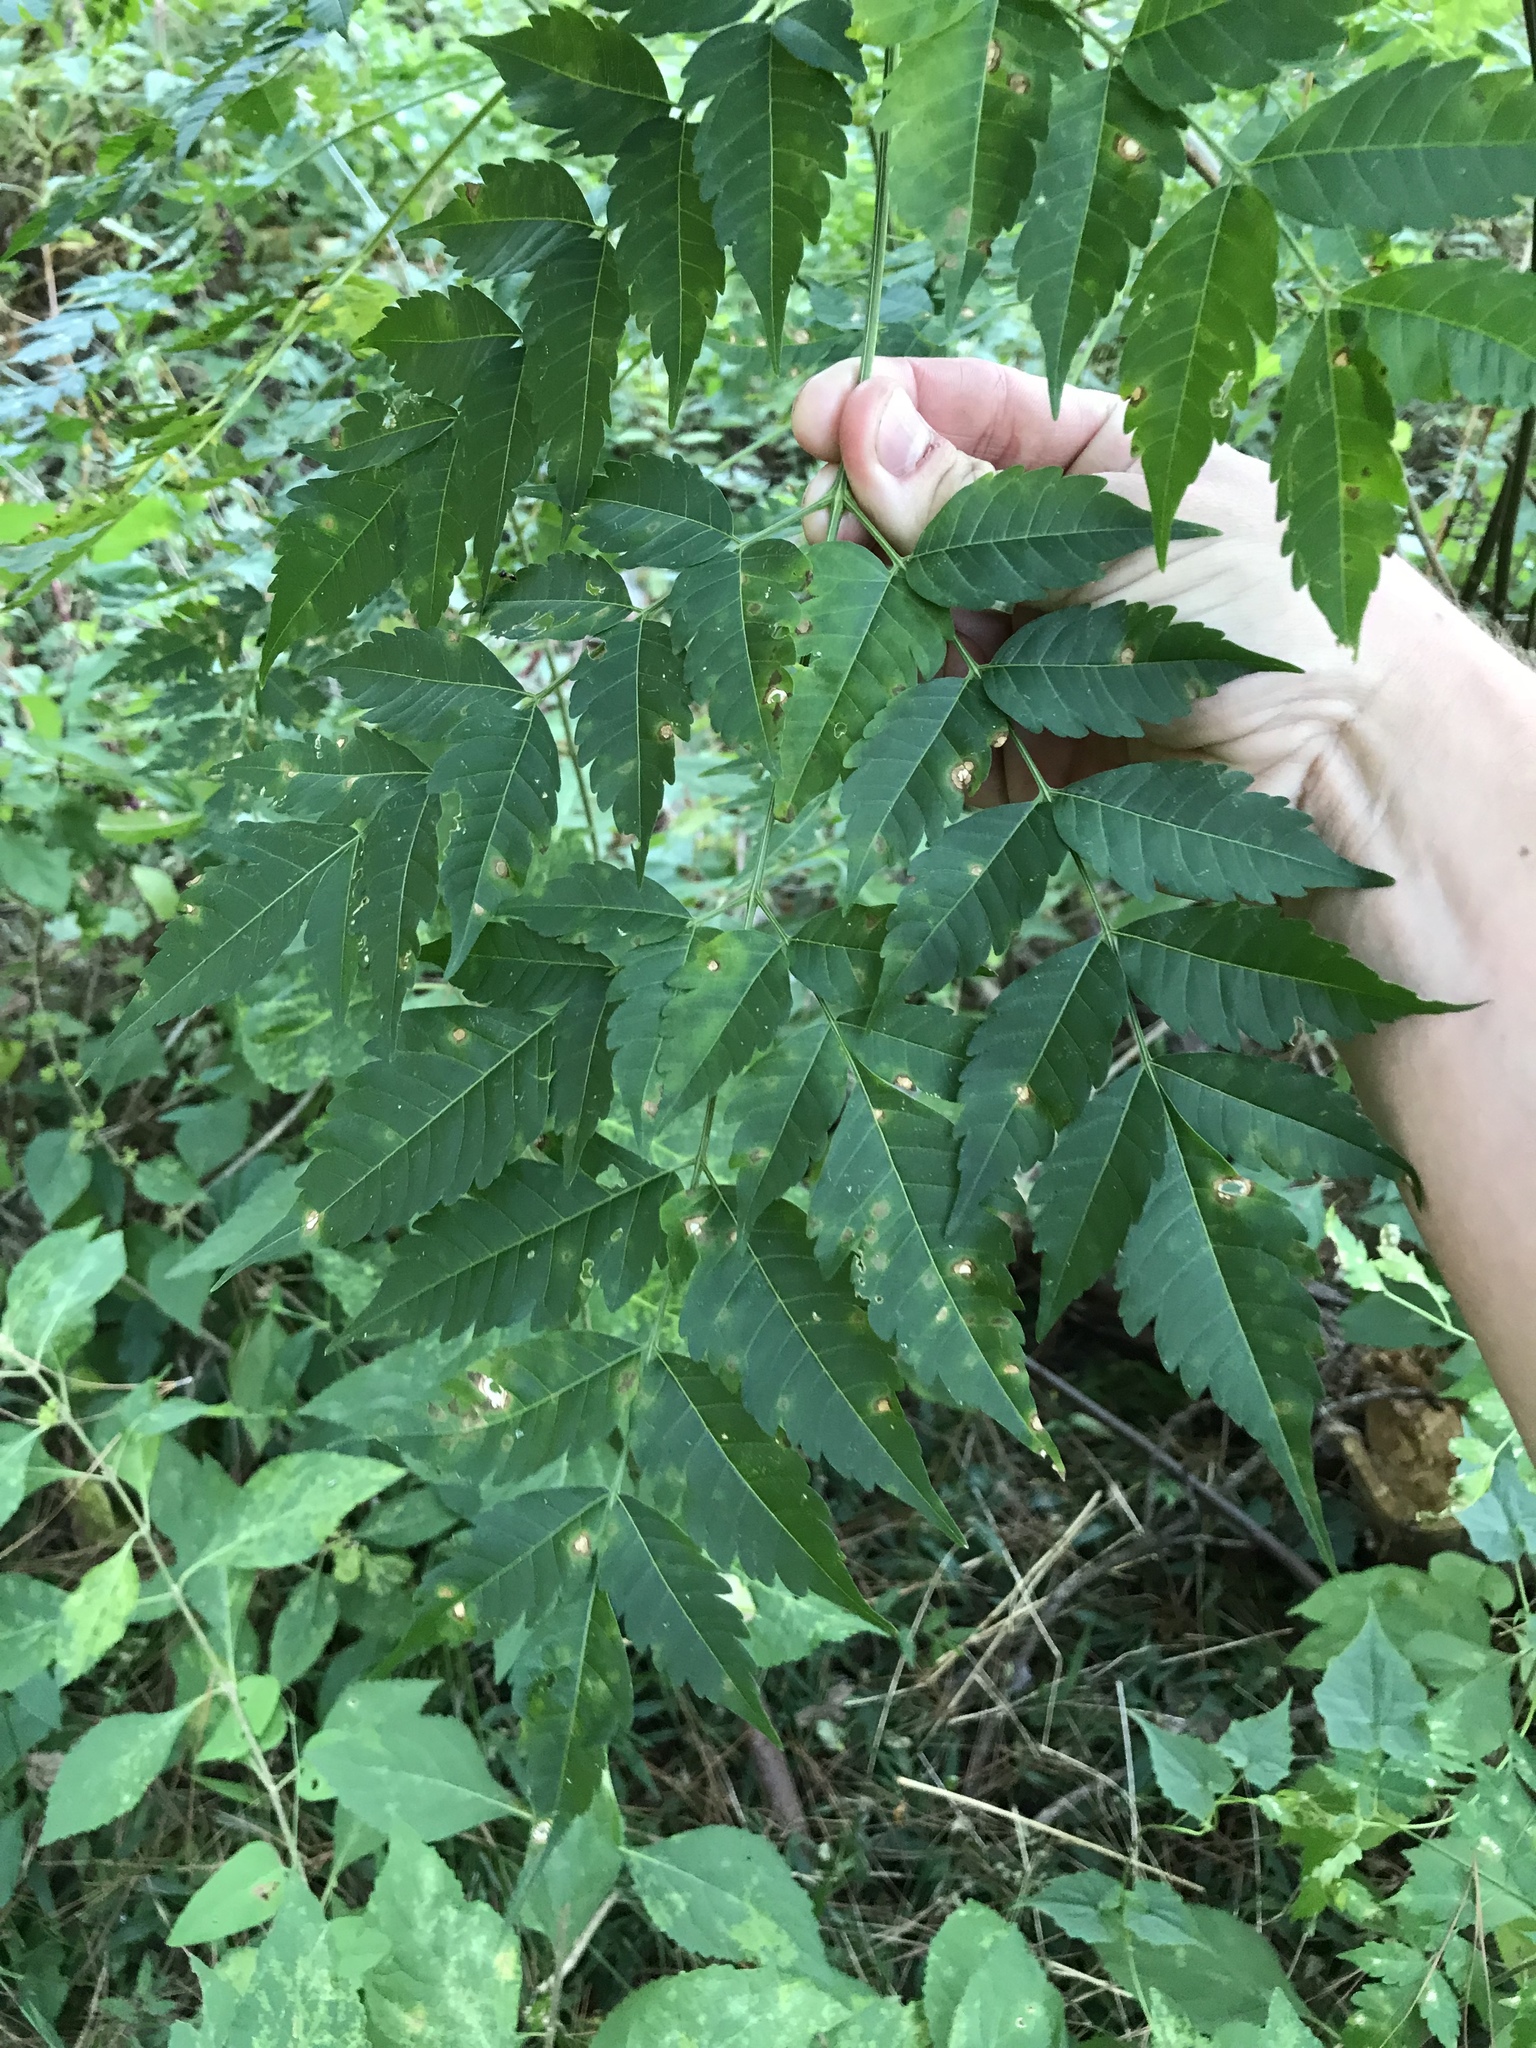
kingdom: Plantae
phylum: Tracheophyta
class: Magnoliopsida
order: Sapindales
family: Meliaceae
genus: Melia
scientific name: Melia azedarach
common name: Chinaberrytree
